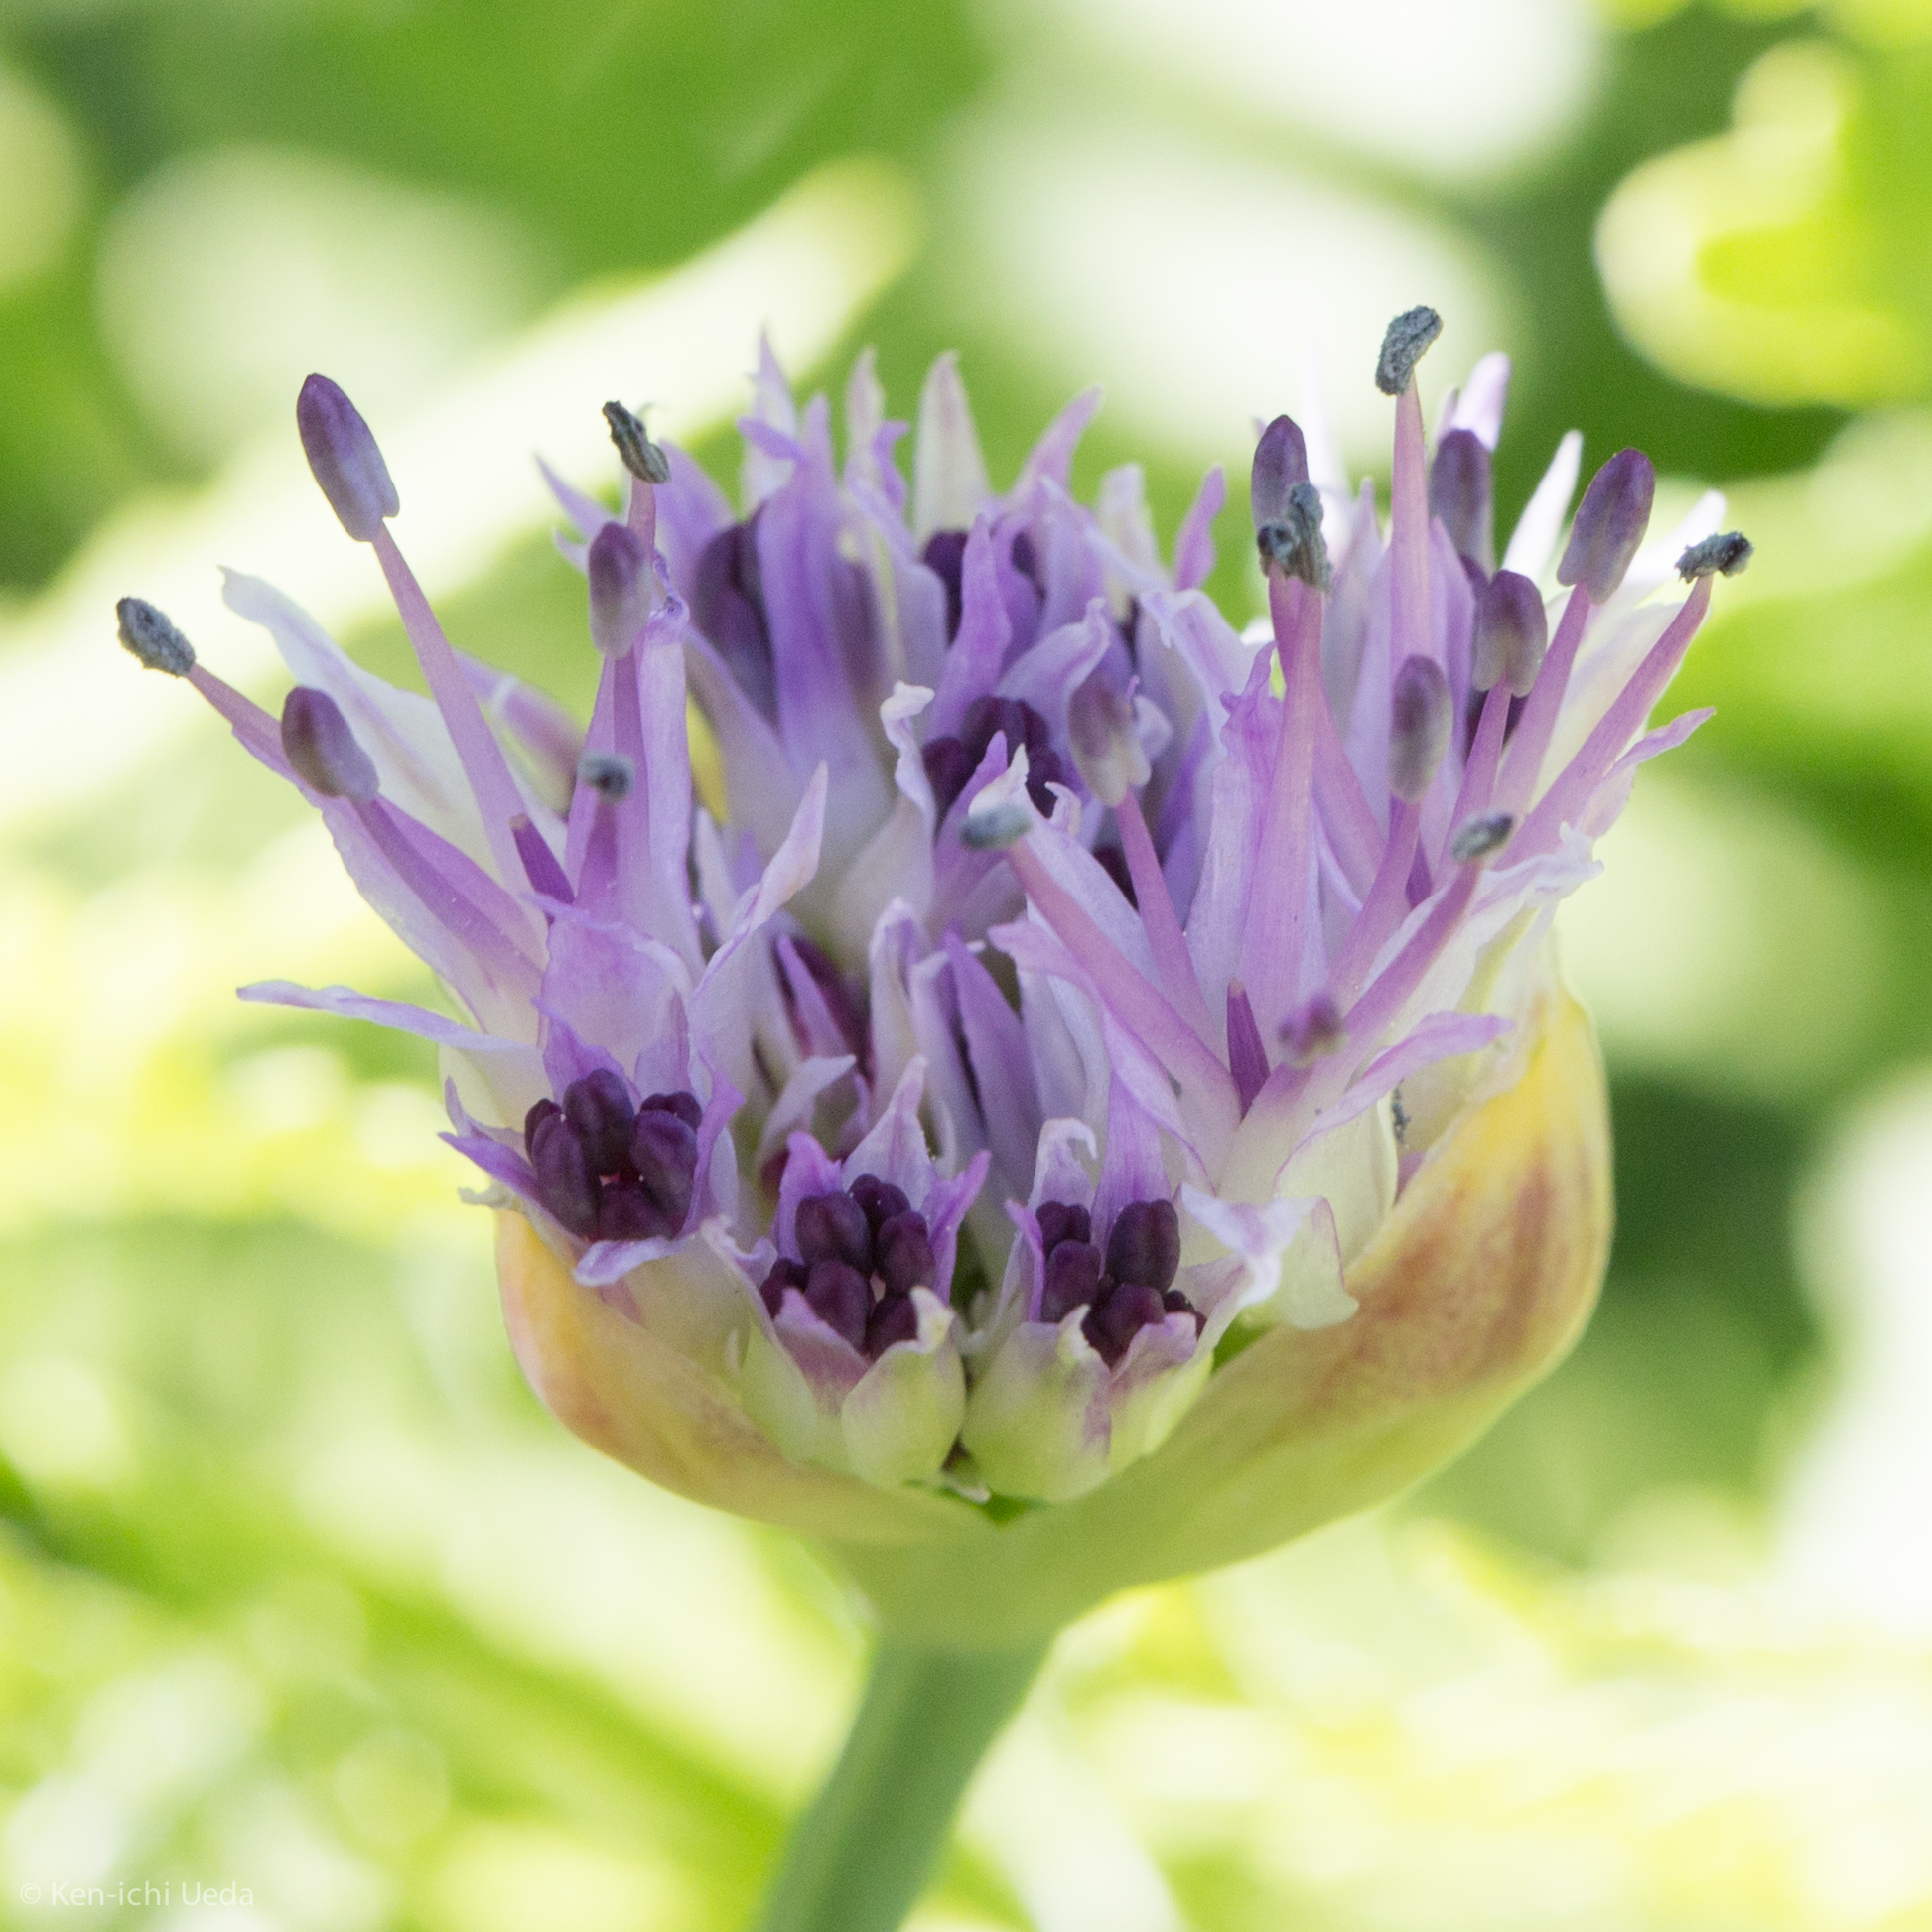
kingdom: Plantae
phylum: Tracheophyta
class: Liliopsida
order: Asparagales
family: Amaryllidaceae
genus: Allium
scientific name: Allium validum
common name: Pacific mountain onion
